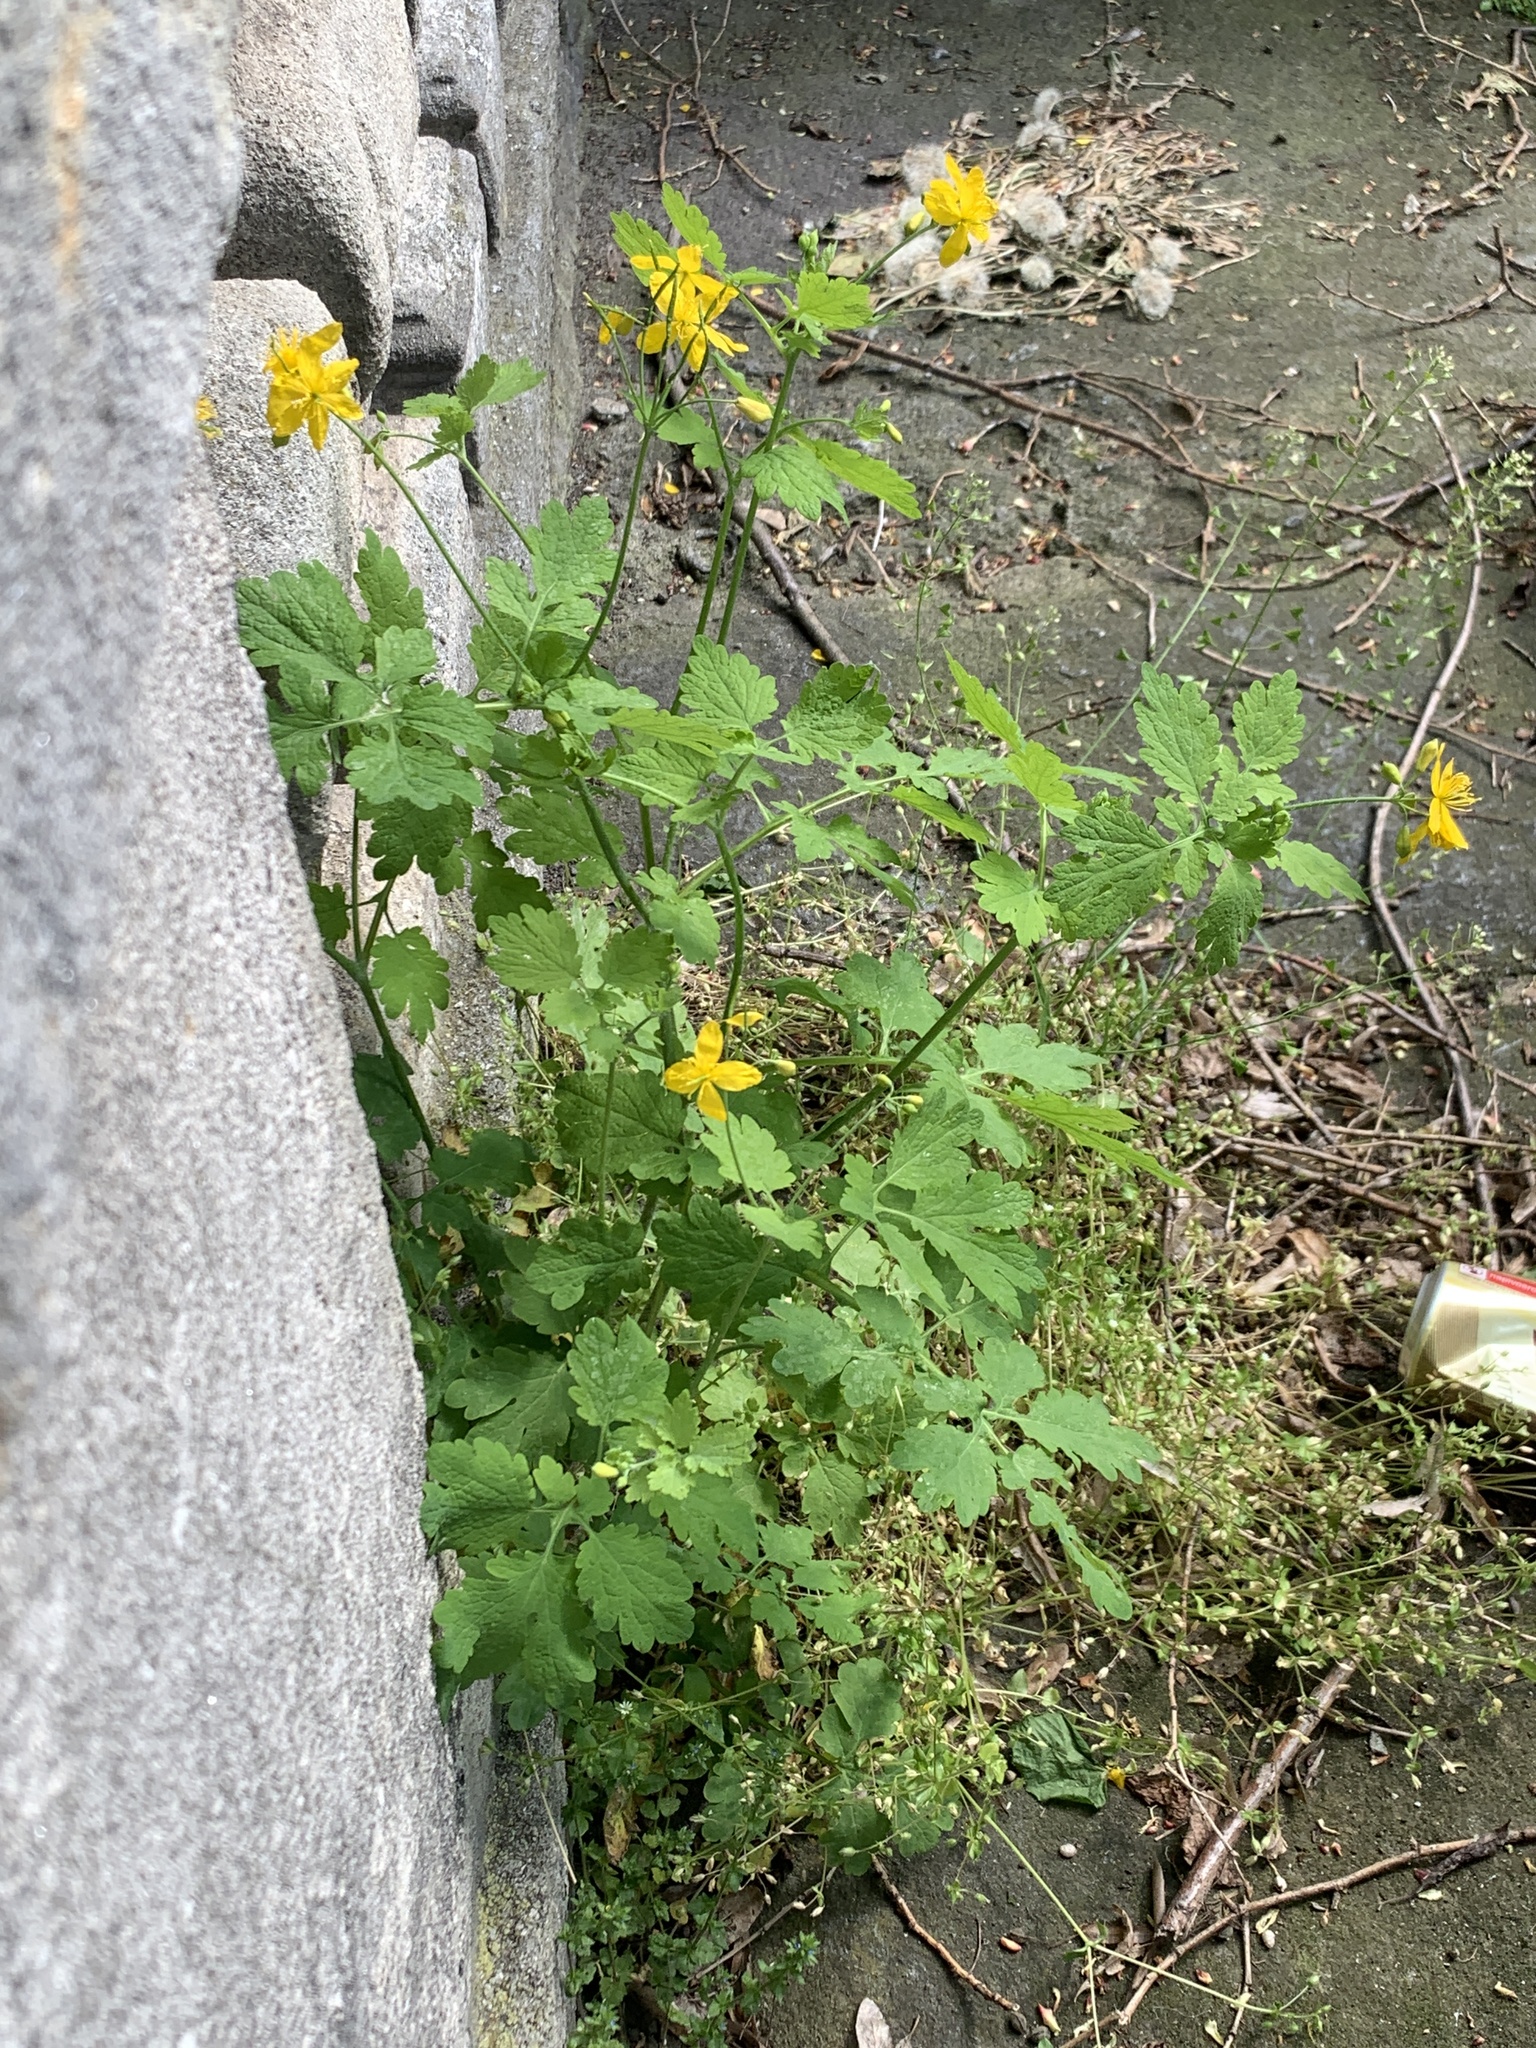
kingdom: Plantae
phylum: Tracheophyta
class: Magnoliopsida
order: Ranunculales
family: Papaveraceae
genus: Chelidonium
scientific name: Chelidonium majus
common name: Greater celandine
